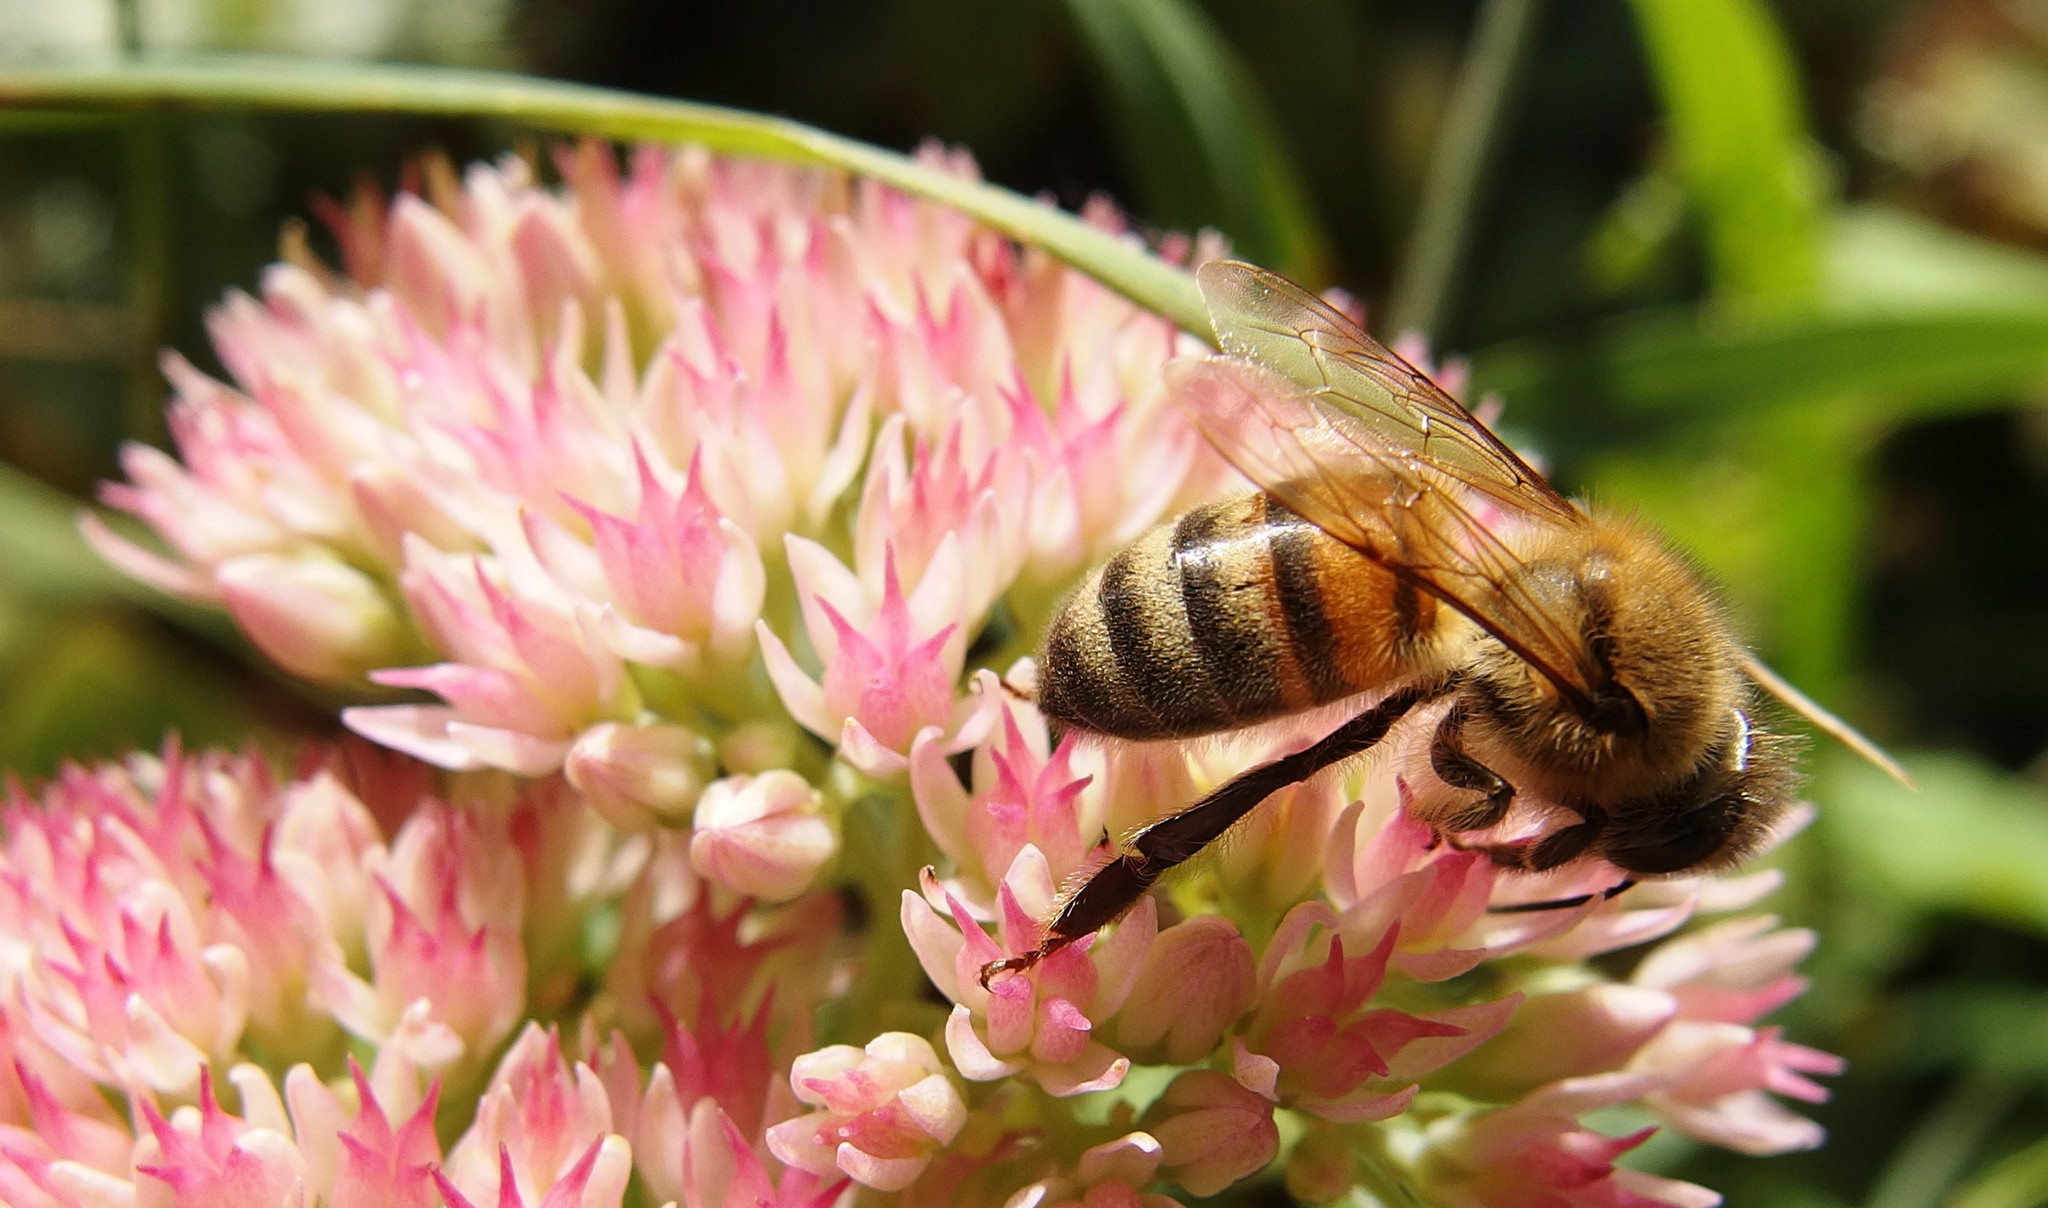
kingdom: Animalia
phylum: Arthropoda
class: Insecta
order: Hymenoptera
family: Apidae
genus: Apis
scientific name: Apis mellifera
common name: Honey bee
